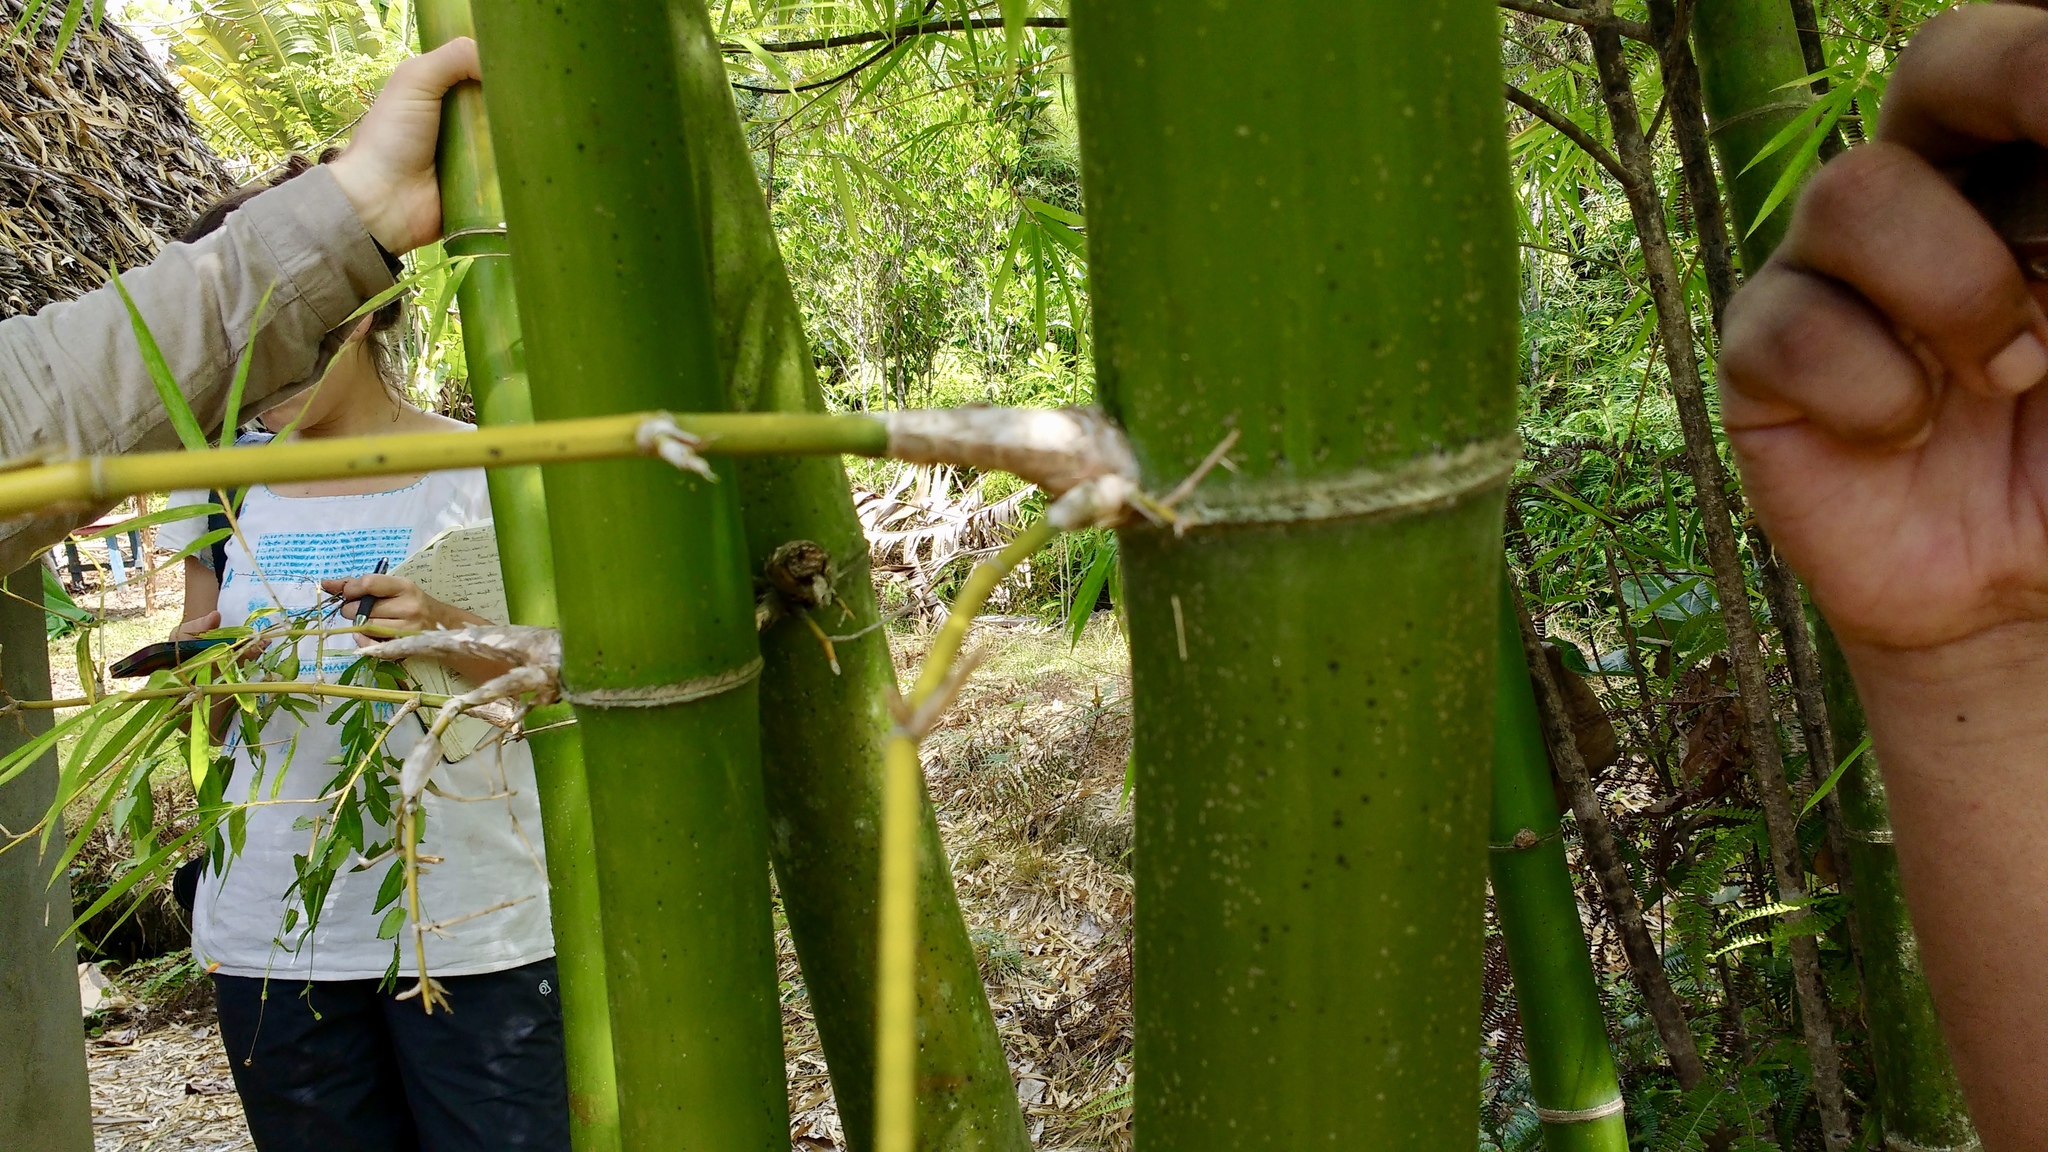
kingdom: Plantae
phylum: Tracheophyta
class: Liliopsida
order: Poales
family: Poaceae
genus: Bambusa
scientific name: Bambusa vulgaris
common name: Common bamboo
